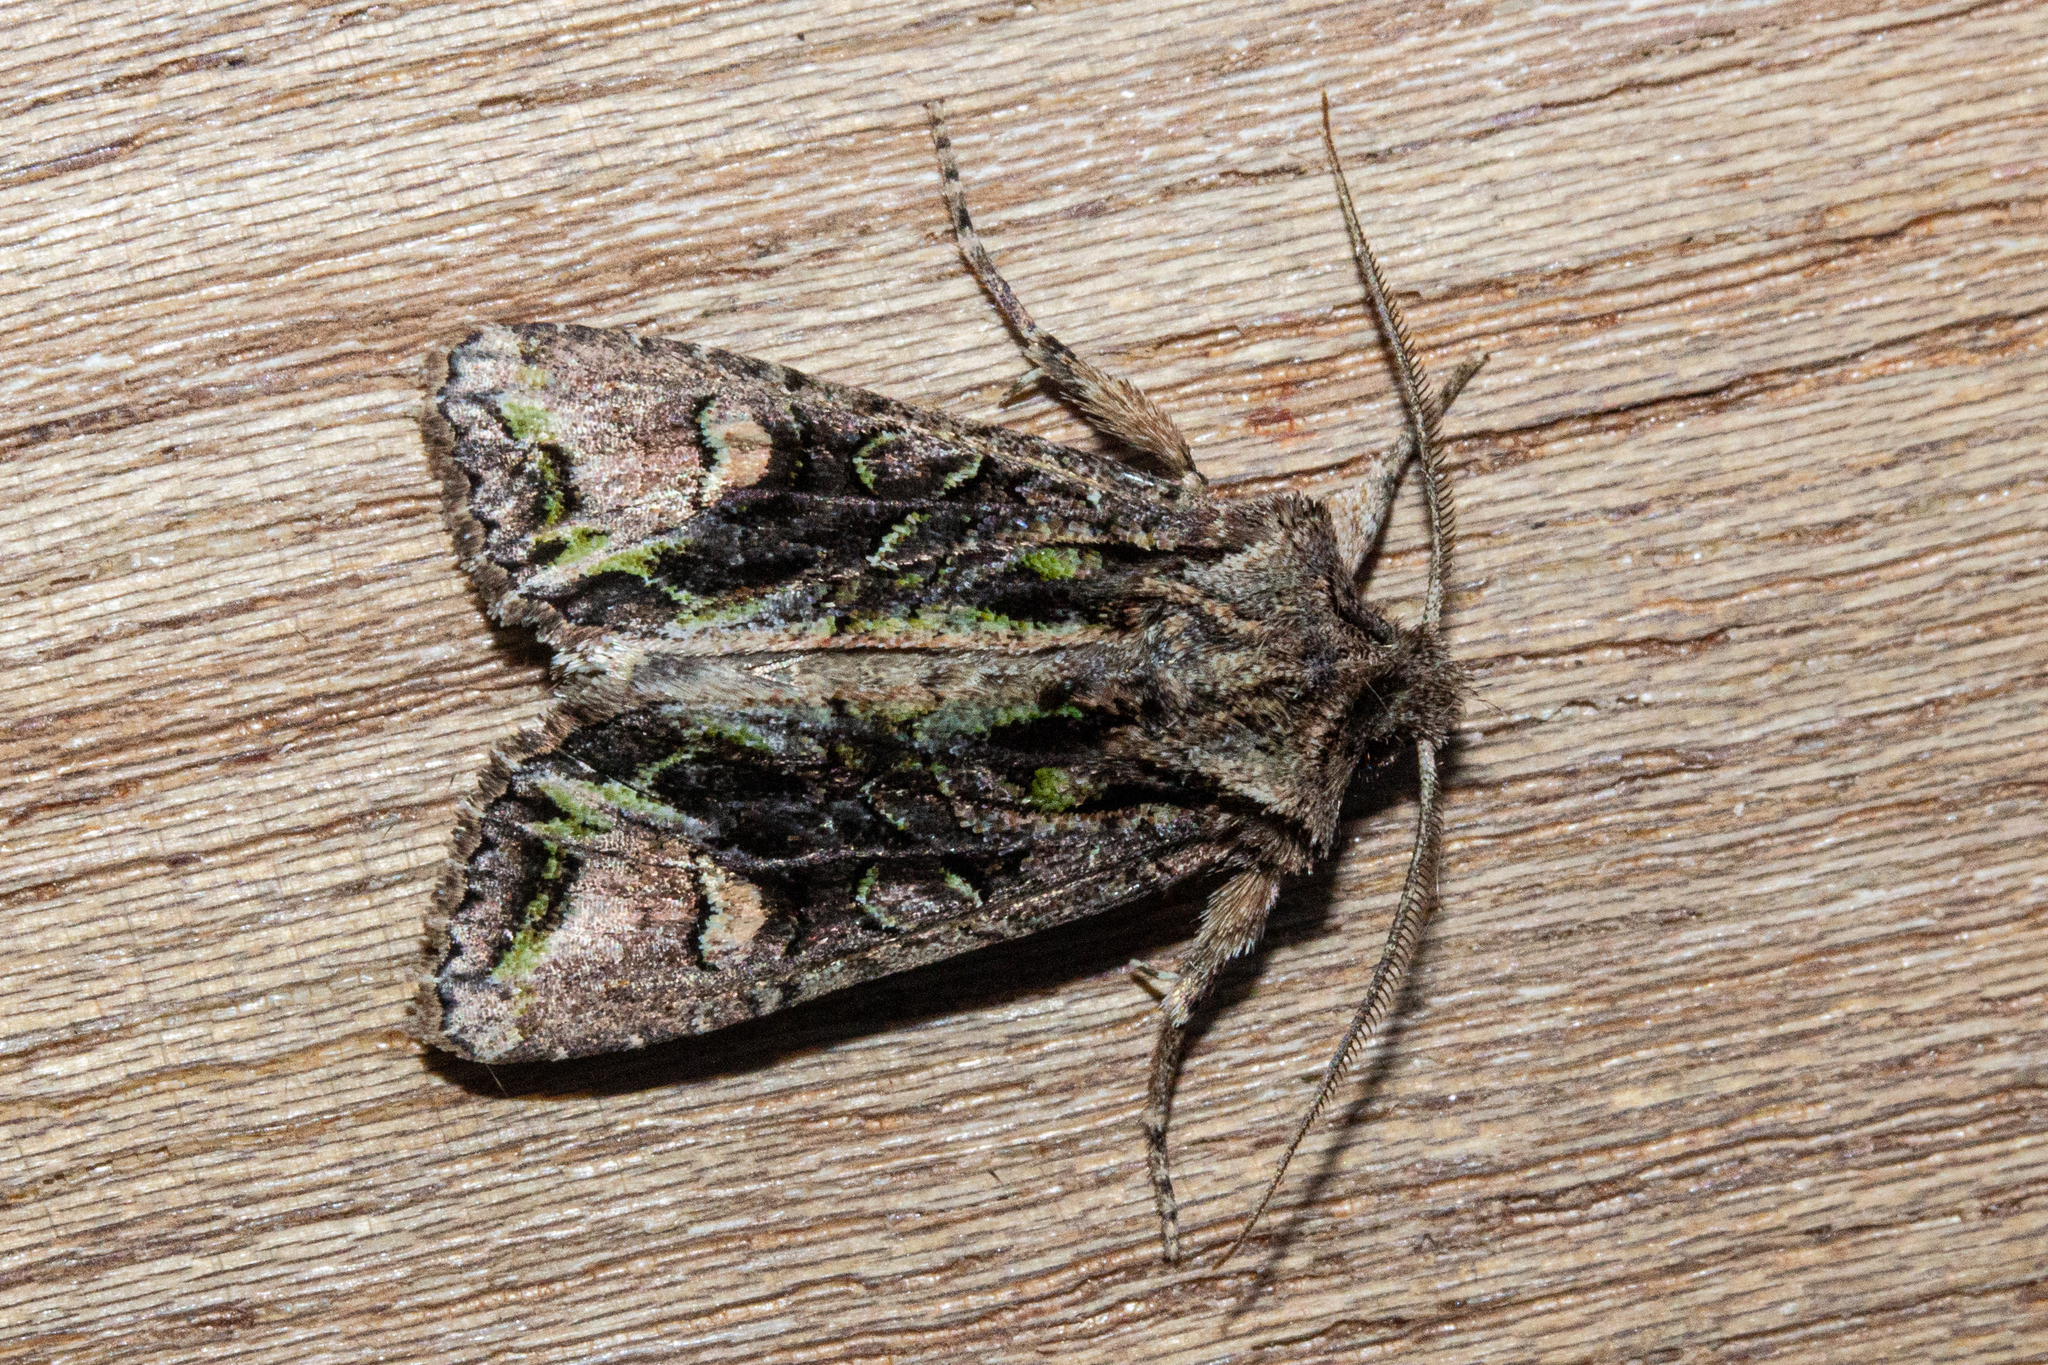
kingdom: Animalia
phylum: Arthropoda
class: Insecta
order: Lepidoptera
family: Noctuidae
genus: Ichneutica
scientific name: Ichneutica insignis
